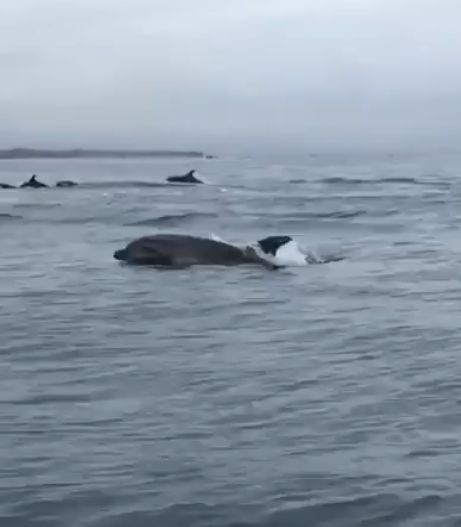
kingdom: Animalia
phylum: Chordata
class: Mammalia
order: Cetacea
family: Delphinidae
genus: Tursiops
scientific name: Tursiops truncatus
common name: Bottlenose dolphin
